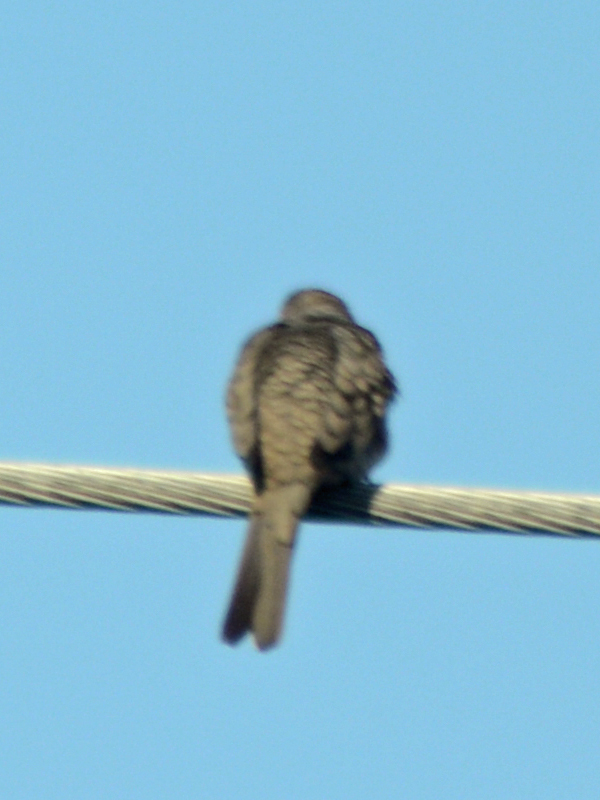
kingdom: Animalia
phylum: Chordata
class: Aves
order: Columbiformes
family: Columbidae
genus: Columbina
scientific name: Columbina inca
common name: Inca dove
